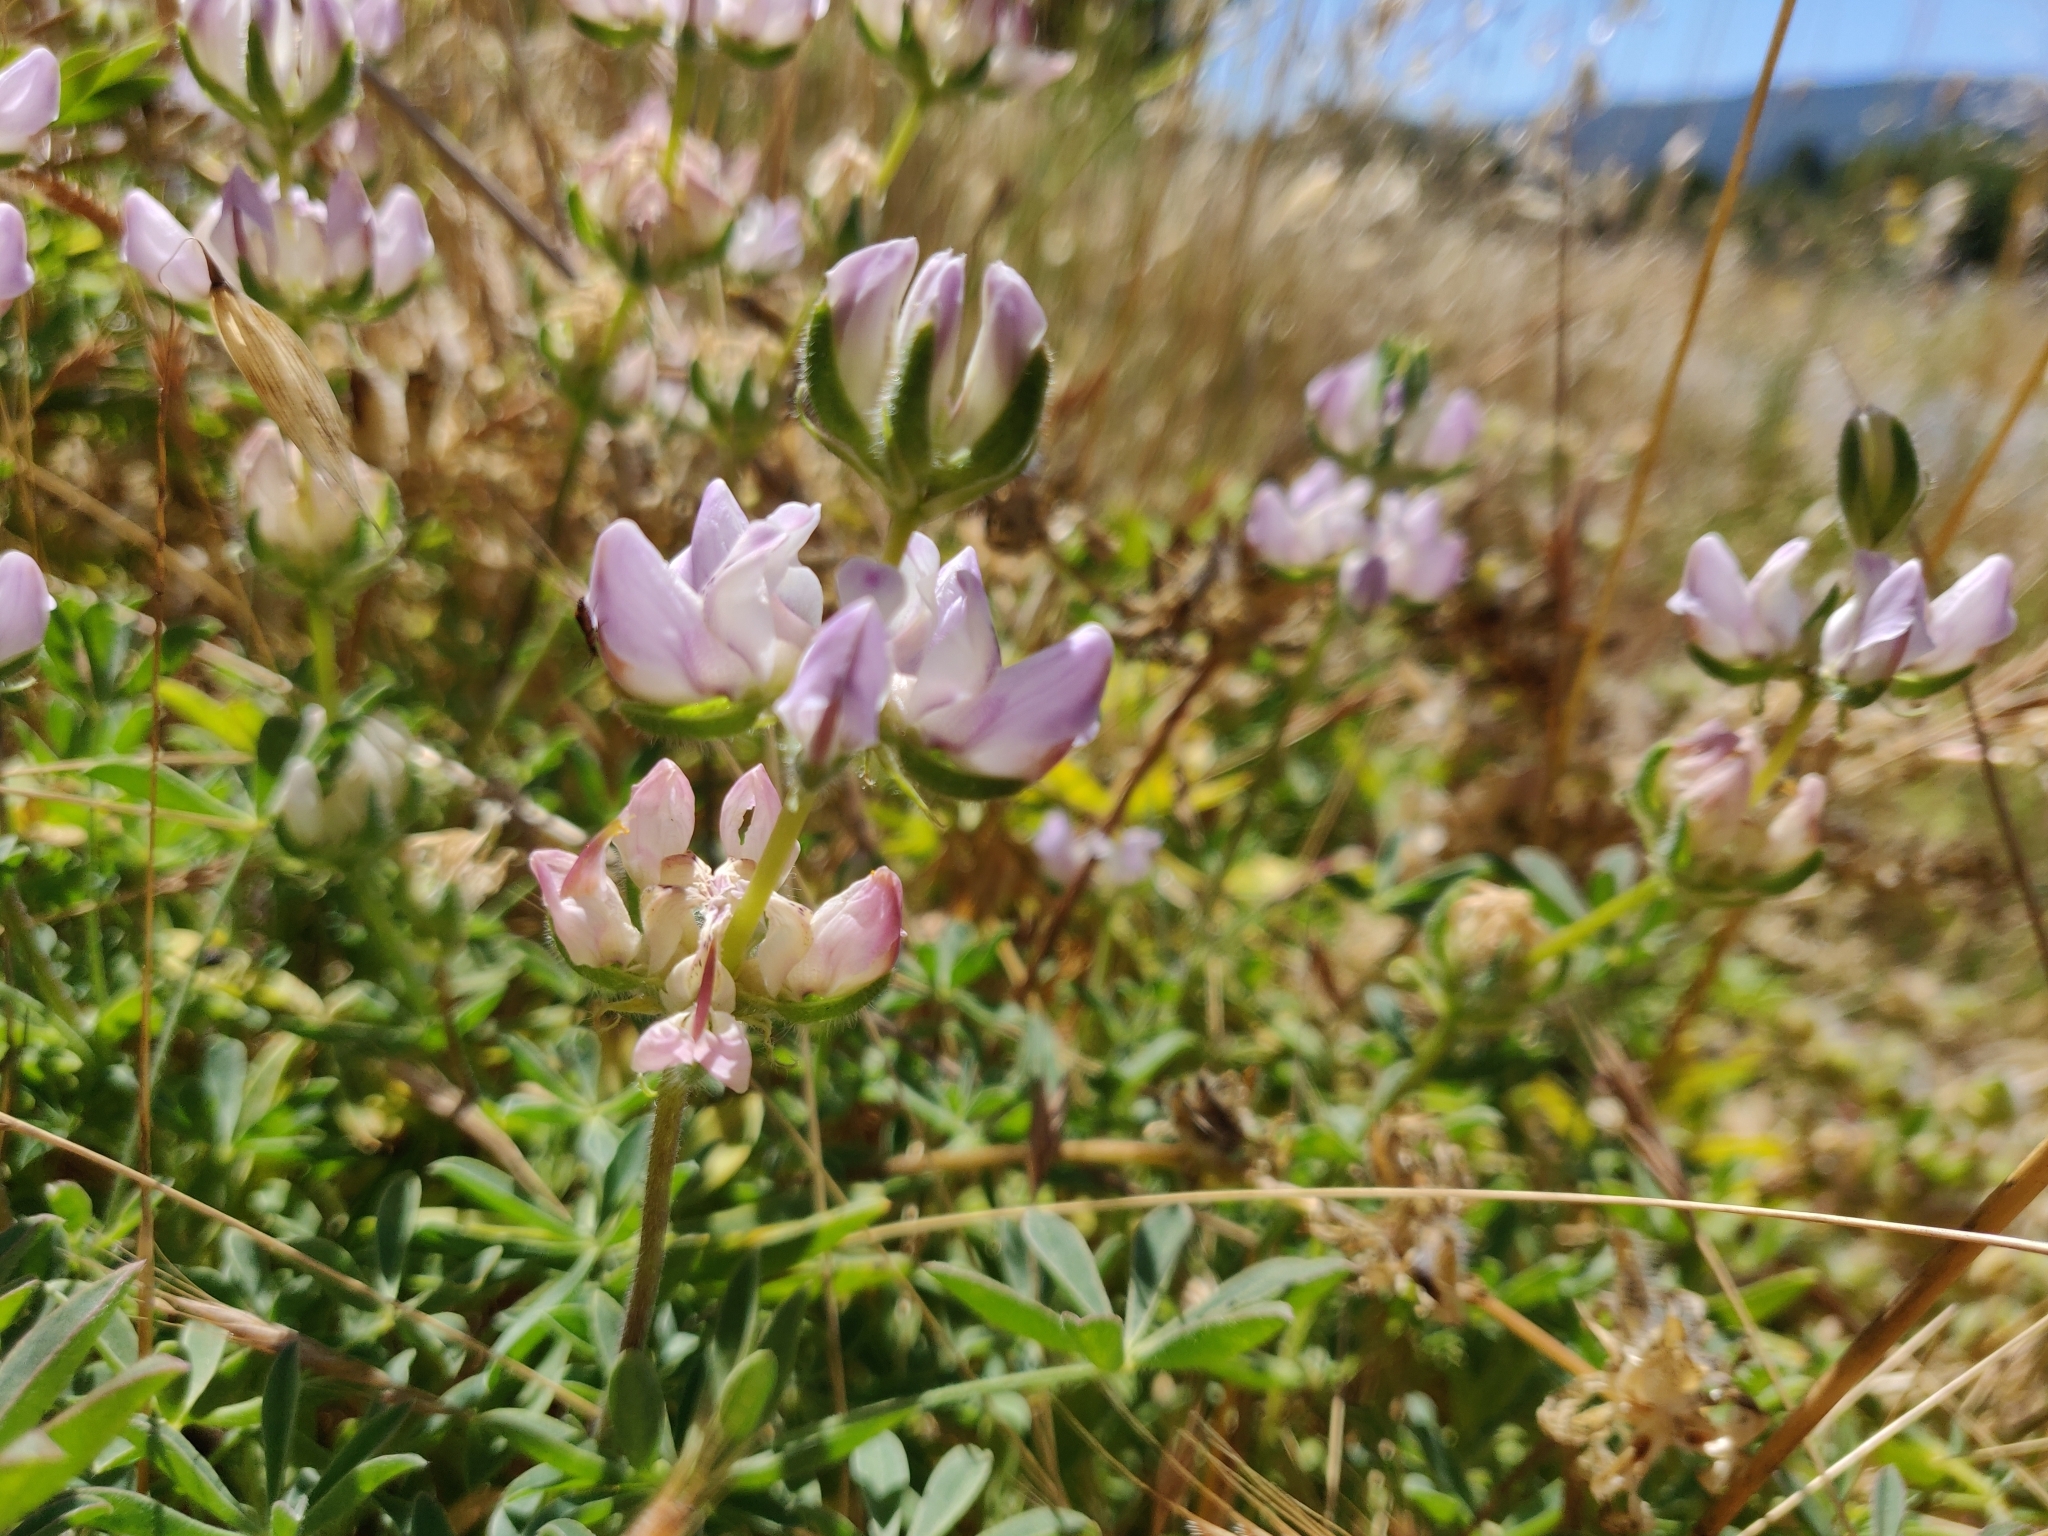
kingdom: Plantae
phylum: Tracheophyta
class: Magnoliopsida
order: Fabales
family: Fabaceae
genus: Lupinus
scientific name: Lupinus microcarpus
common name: Chick lupine
